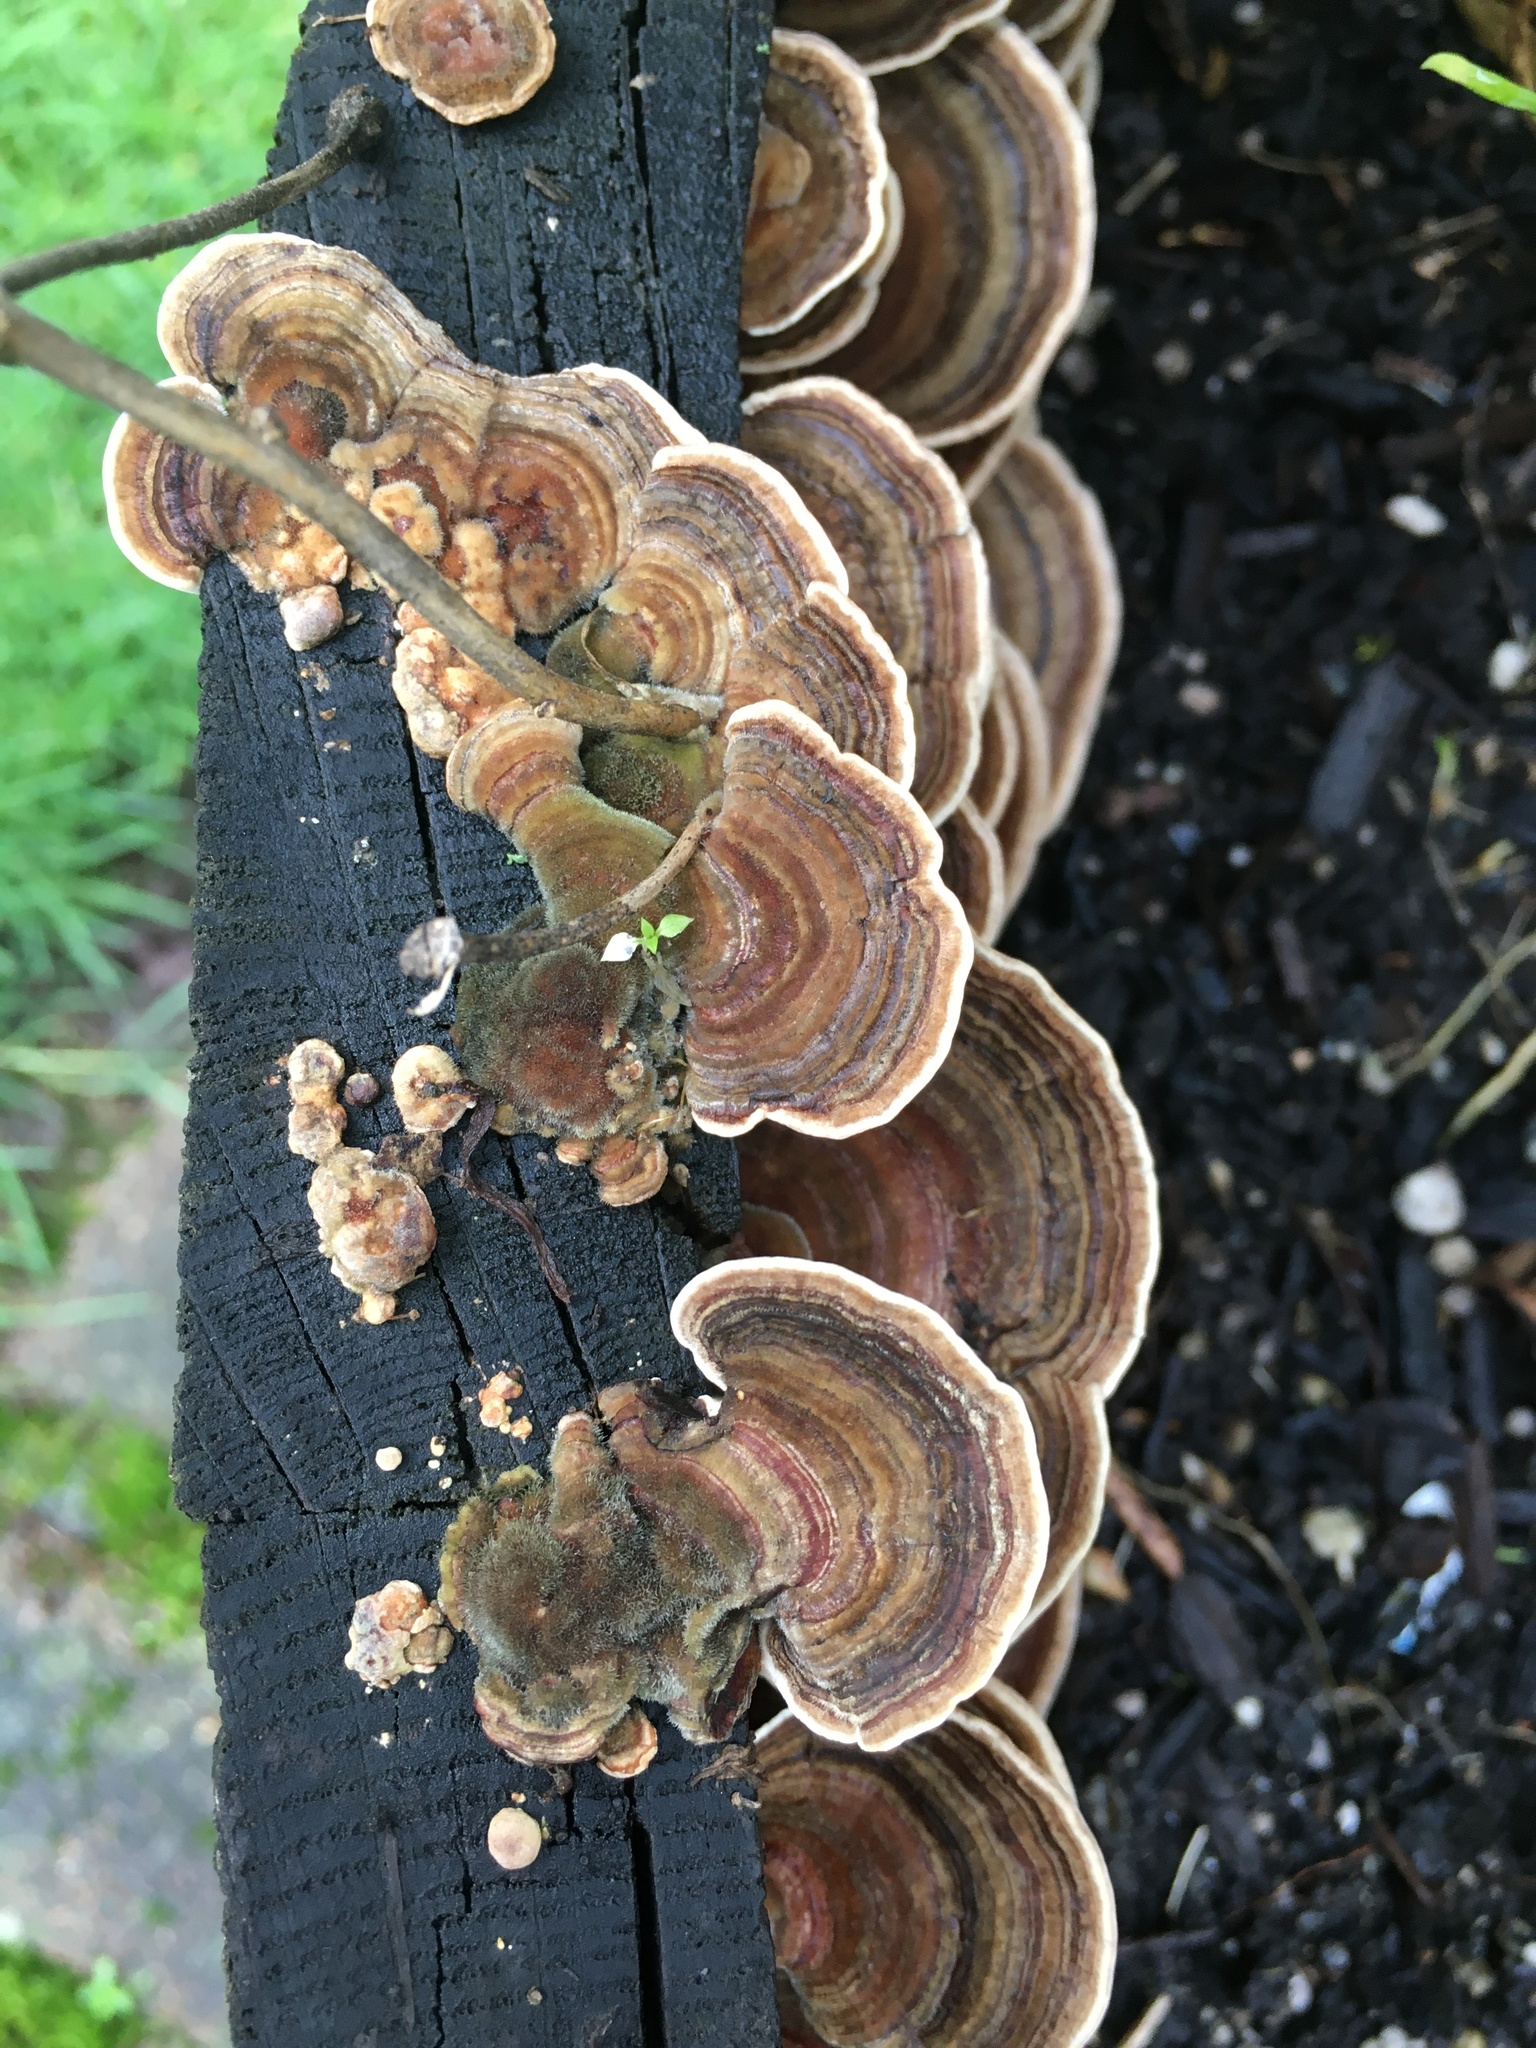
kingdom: Fungi
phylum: Basidiomycota
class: Agaricomycetes
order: Polyporales
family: Polyporaceae
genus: Trametes
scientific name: Trametes versicolor
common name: Turkeytail
